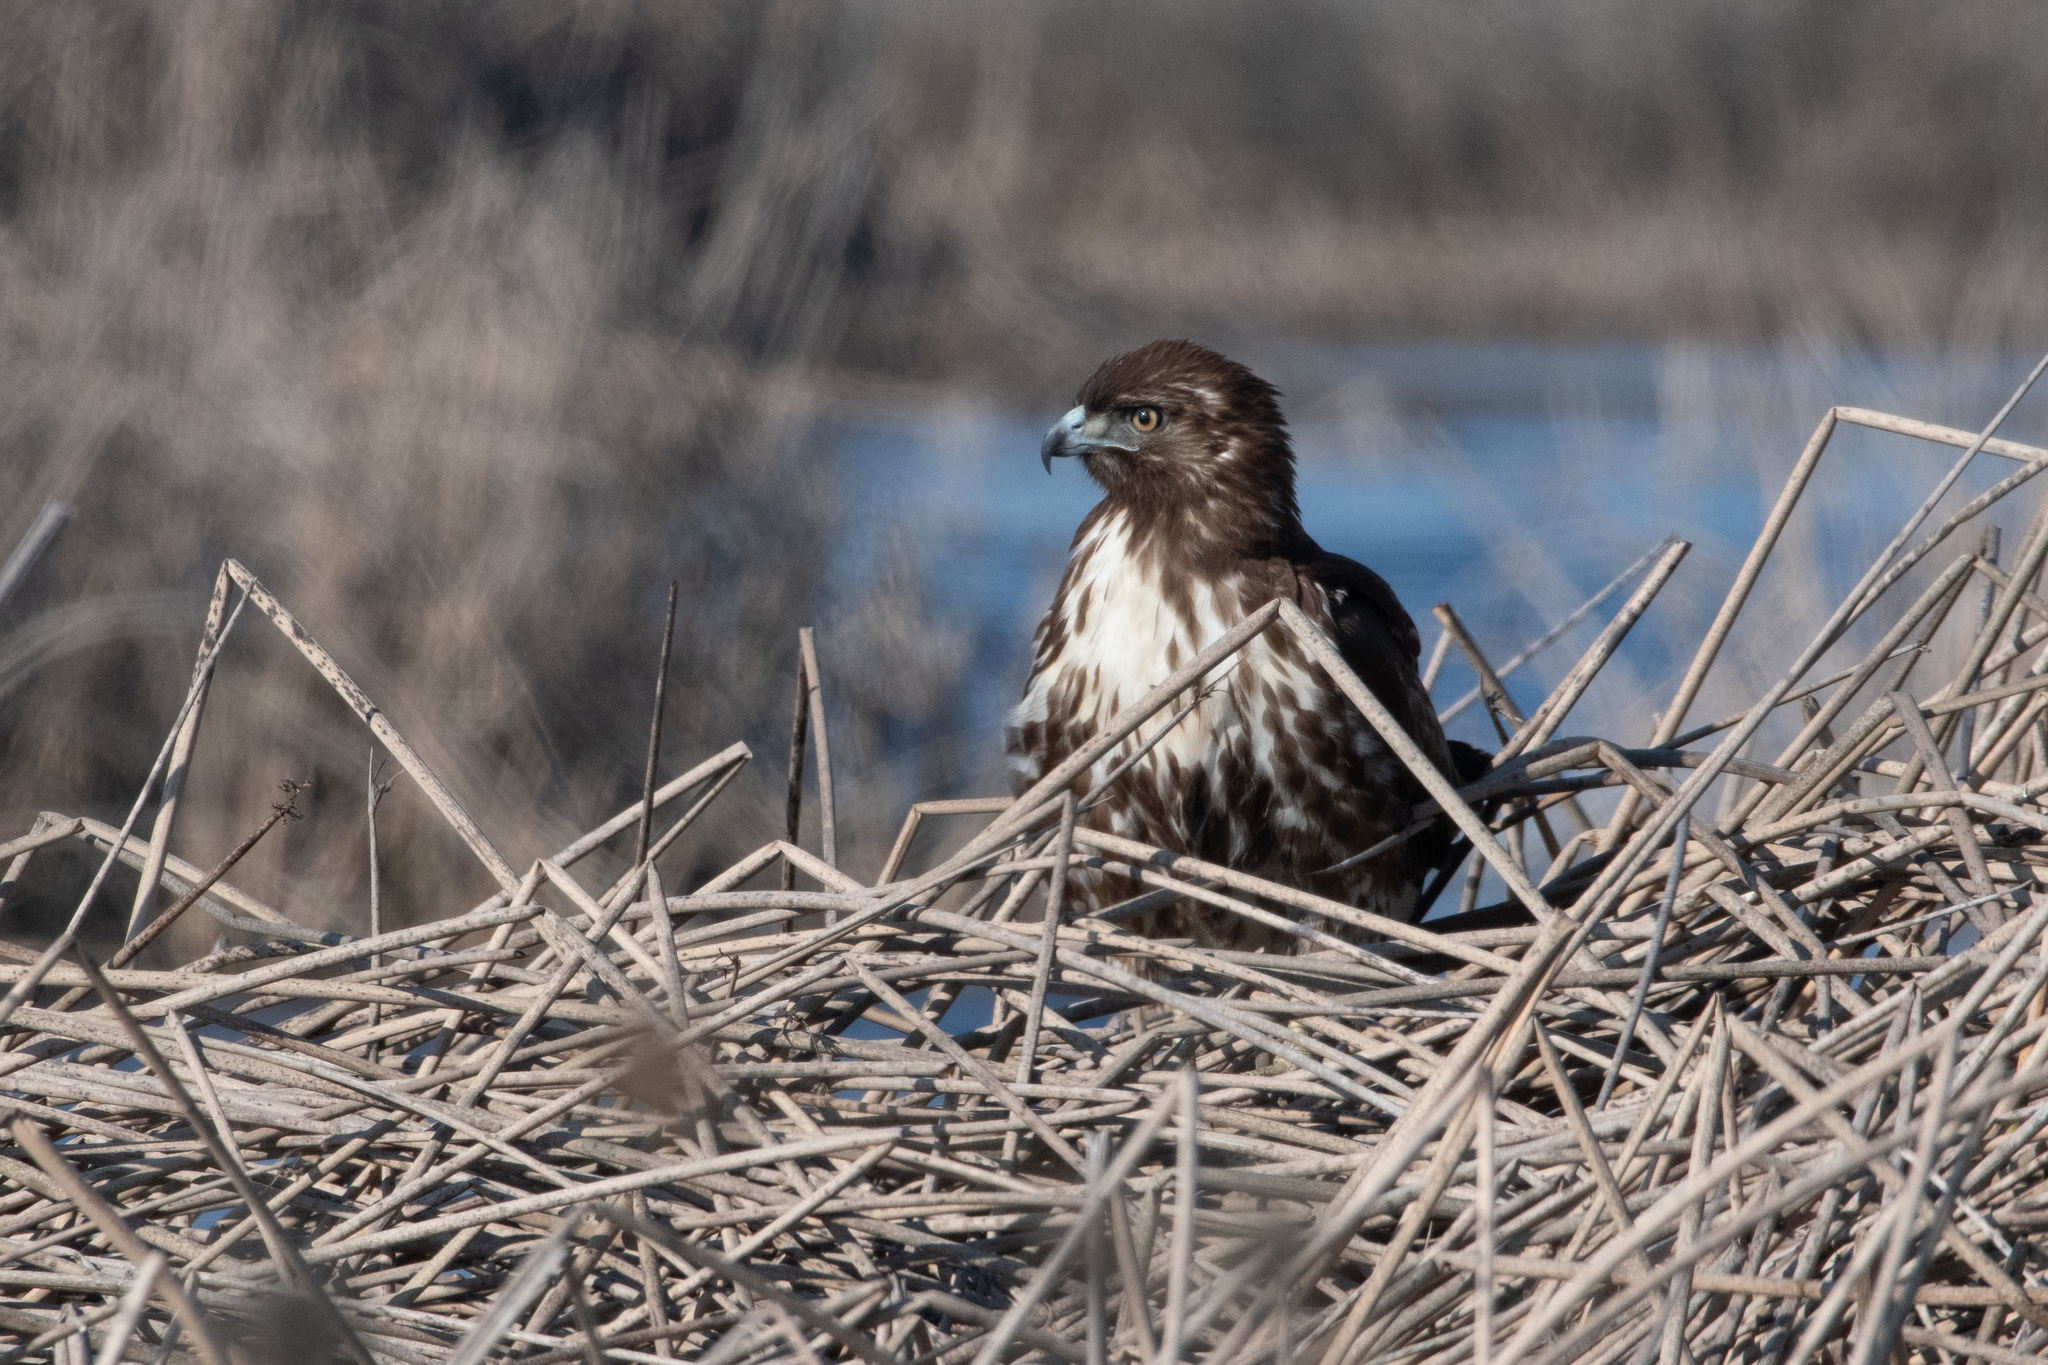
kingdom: Animalia
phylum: Chordata
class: Aves
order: Accipitriformes
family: Accipitridae
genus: Buteo
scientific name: Buteo jamaicensis
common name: Red-tailed hawk
